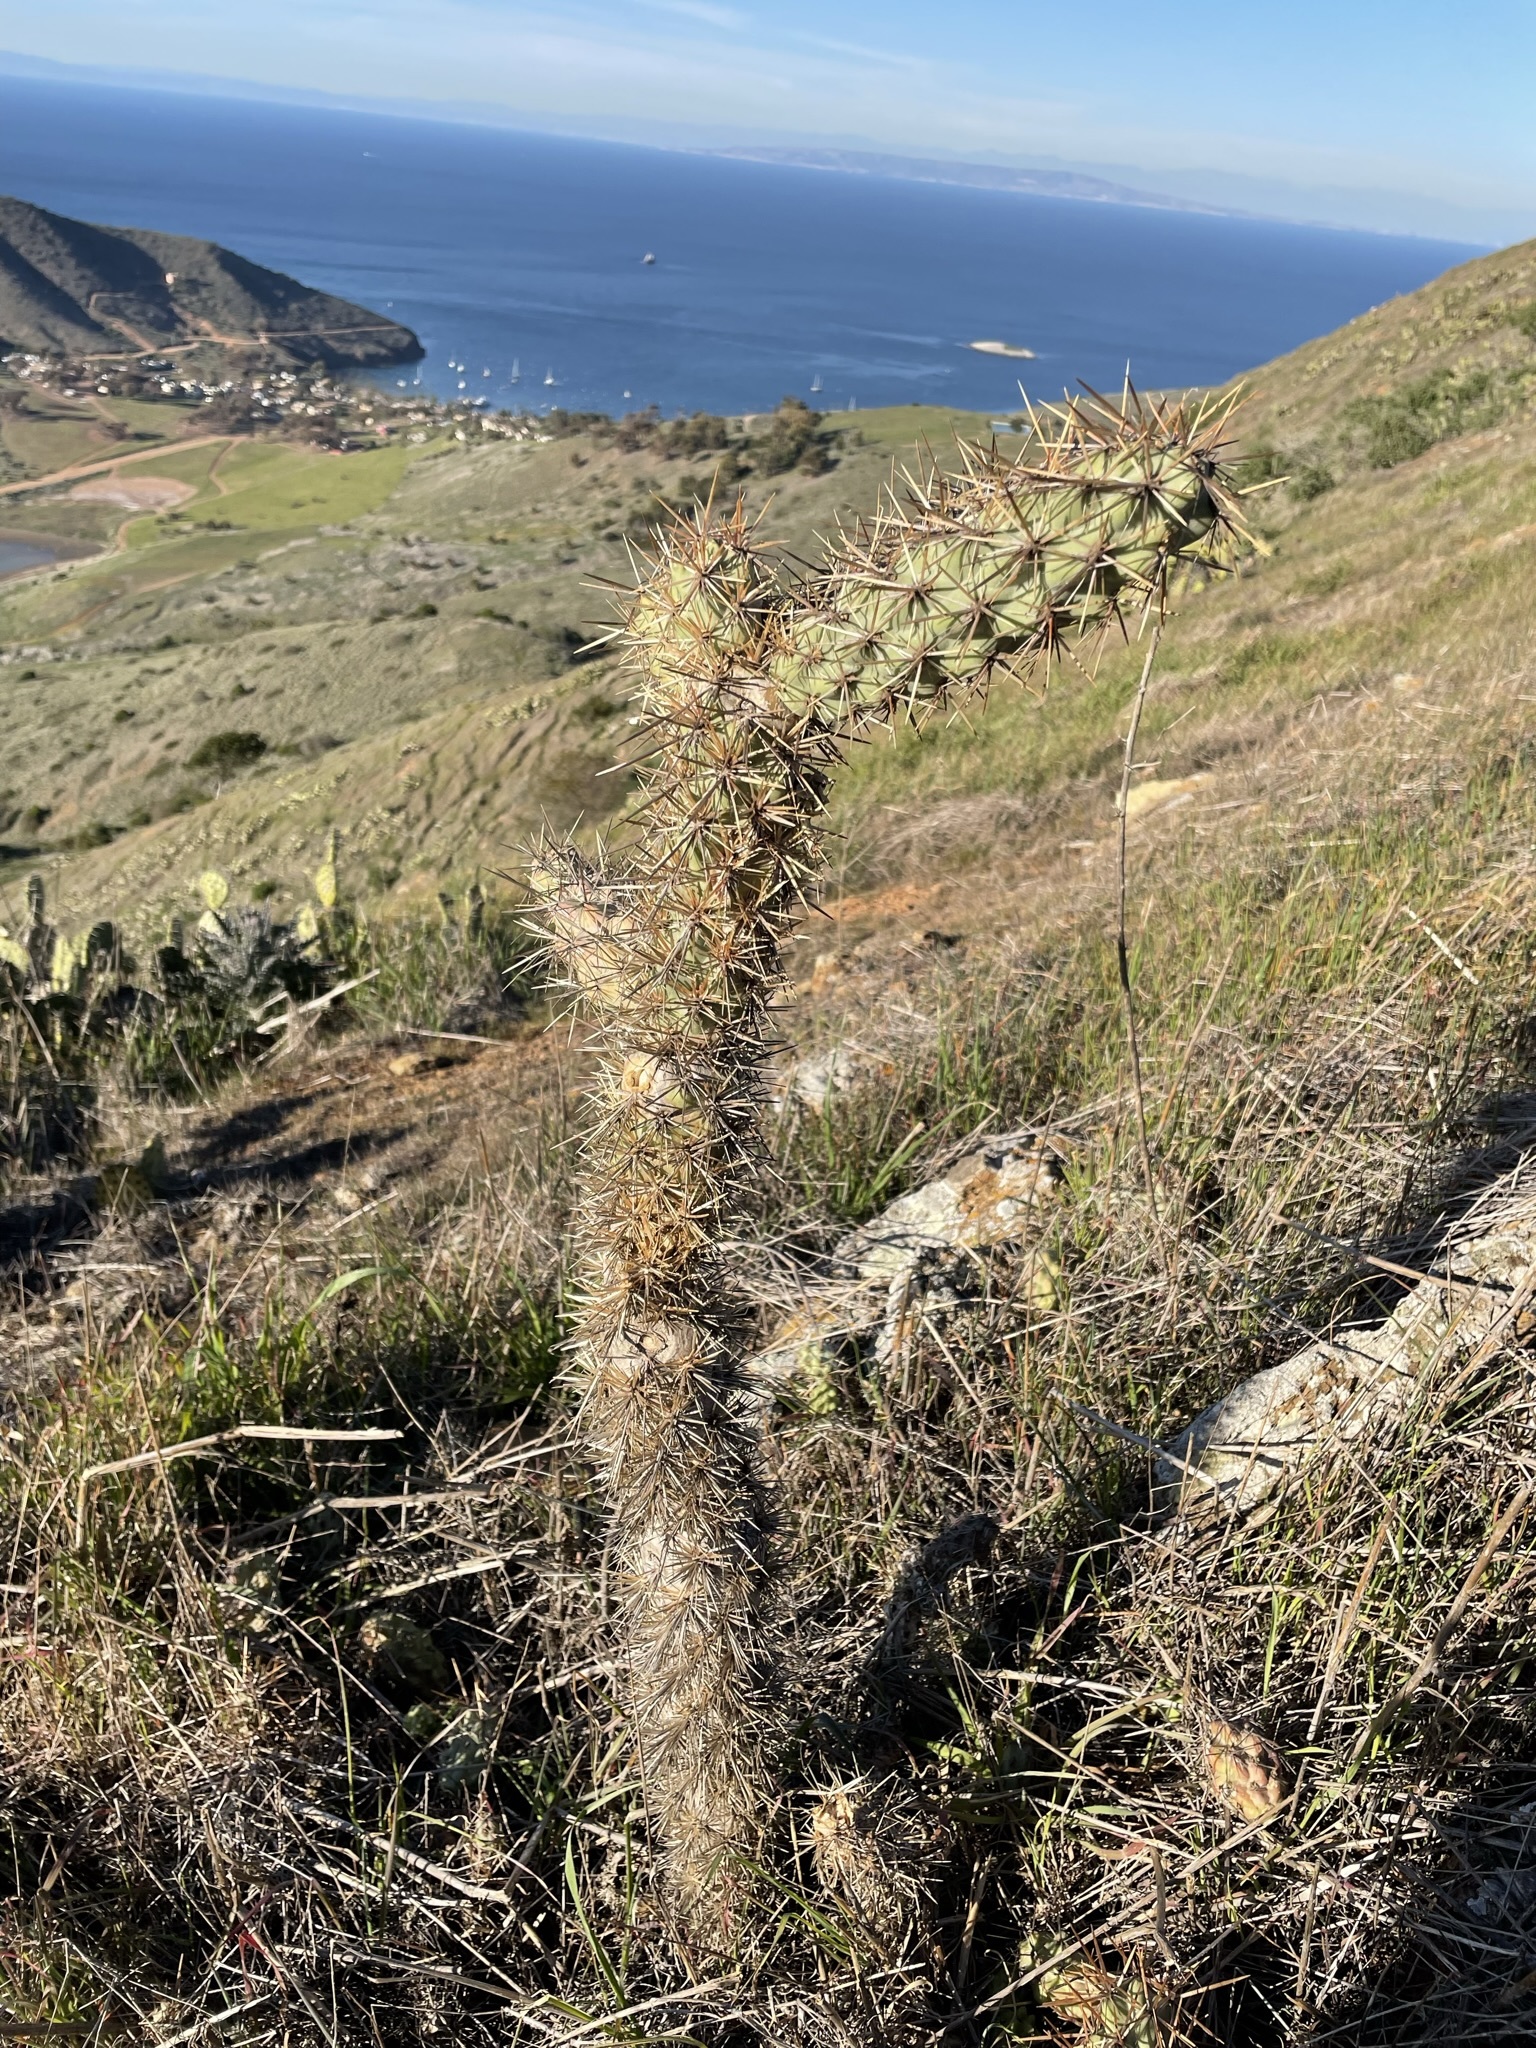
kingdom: Plantae
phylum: Tracheophyta
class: Magnoliopsida
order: Caryophyllales
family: Cactaceae
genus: Cylindropuntia
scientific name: Cylindropuntia prolifera
